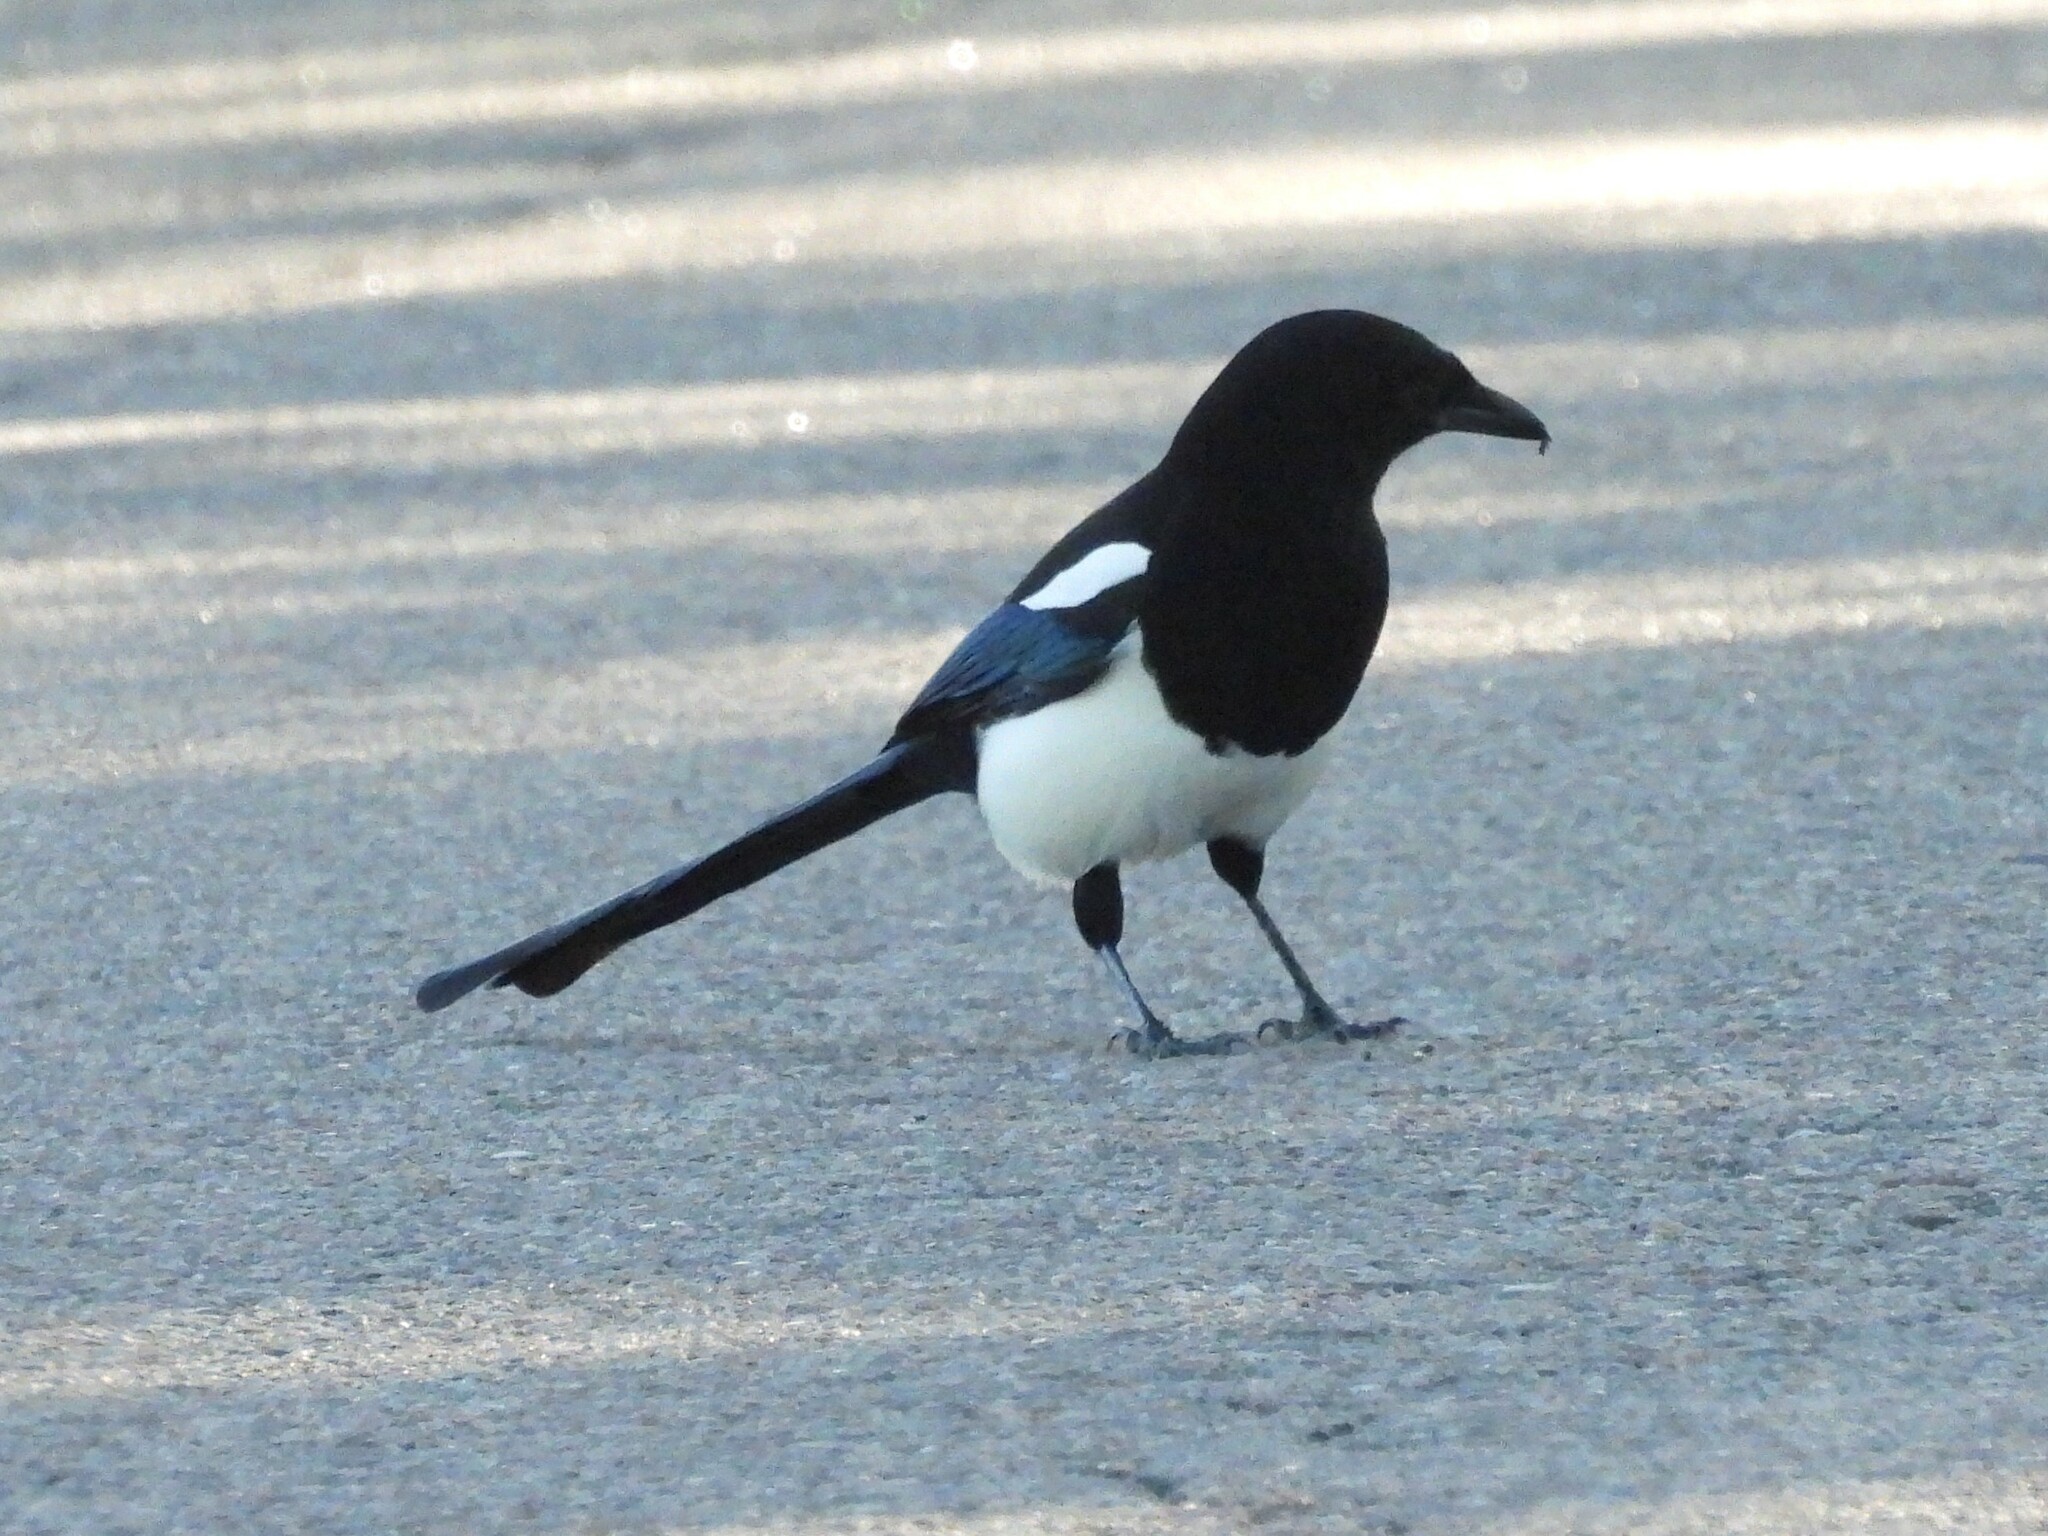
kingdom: Animalia
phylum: Chordata
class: Aves
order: Passeriformes
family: Corvidae
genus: Pica
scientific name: Pica hudsonia
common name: Black-billed magpie
